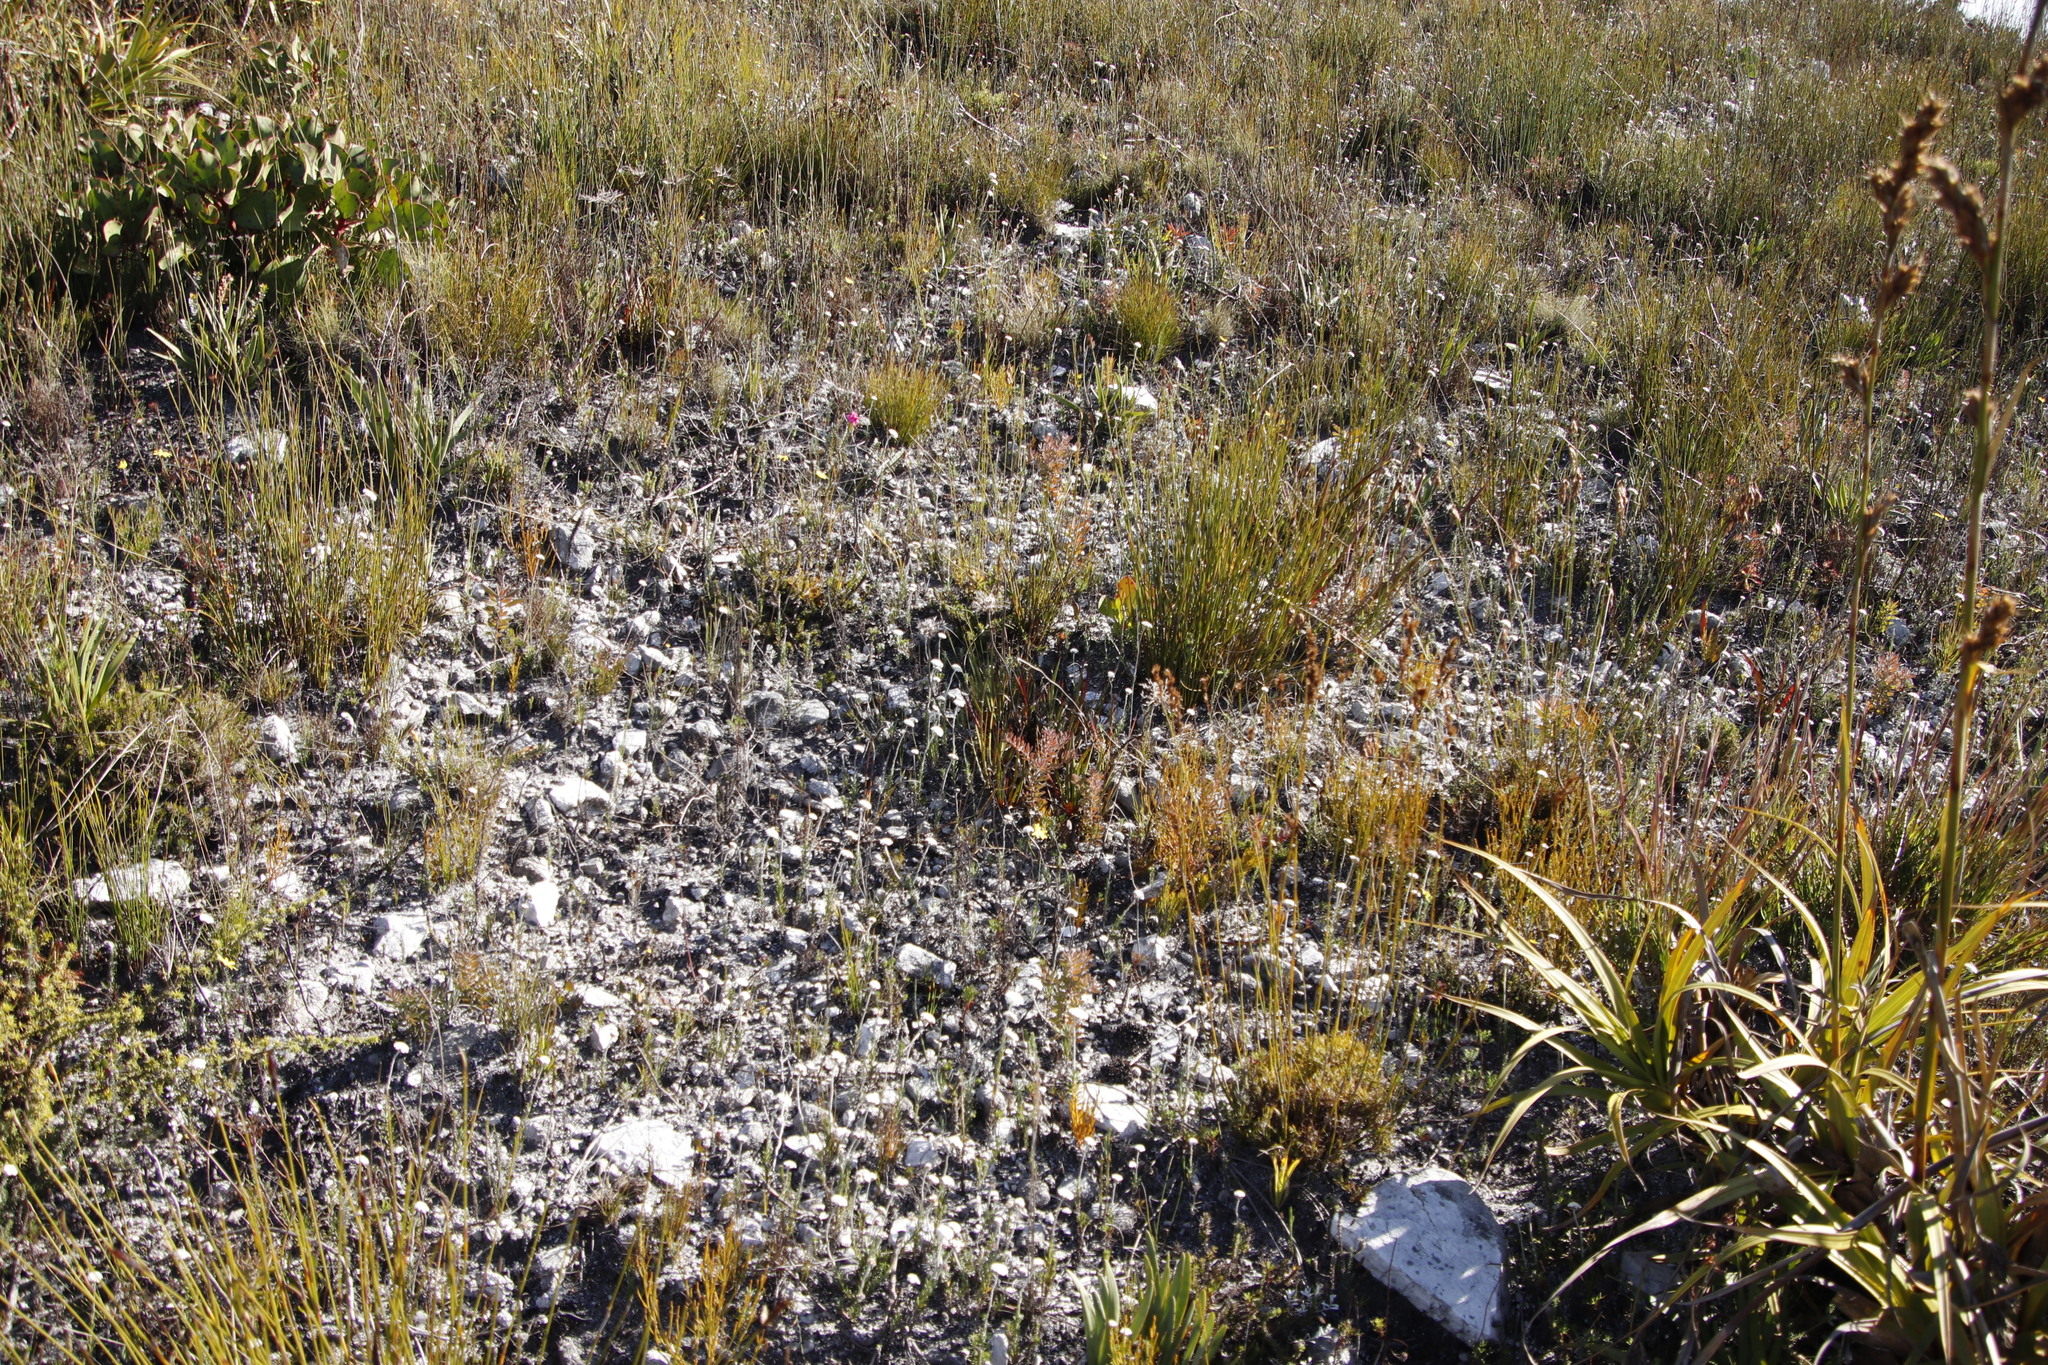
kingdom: Plantae
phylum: Tracheophyta
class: Magnoliopsida
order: Proteales
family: Proteaceae
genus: Diastella
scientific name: Diastella divaricata
